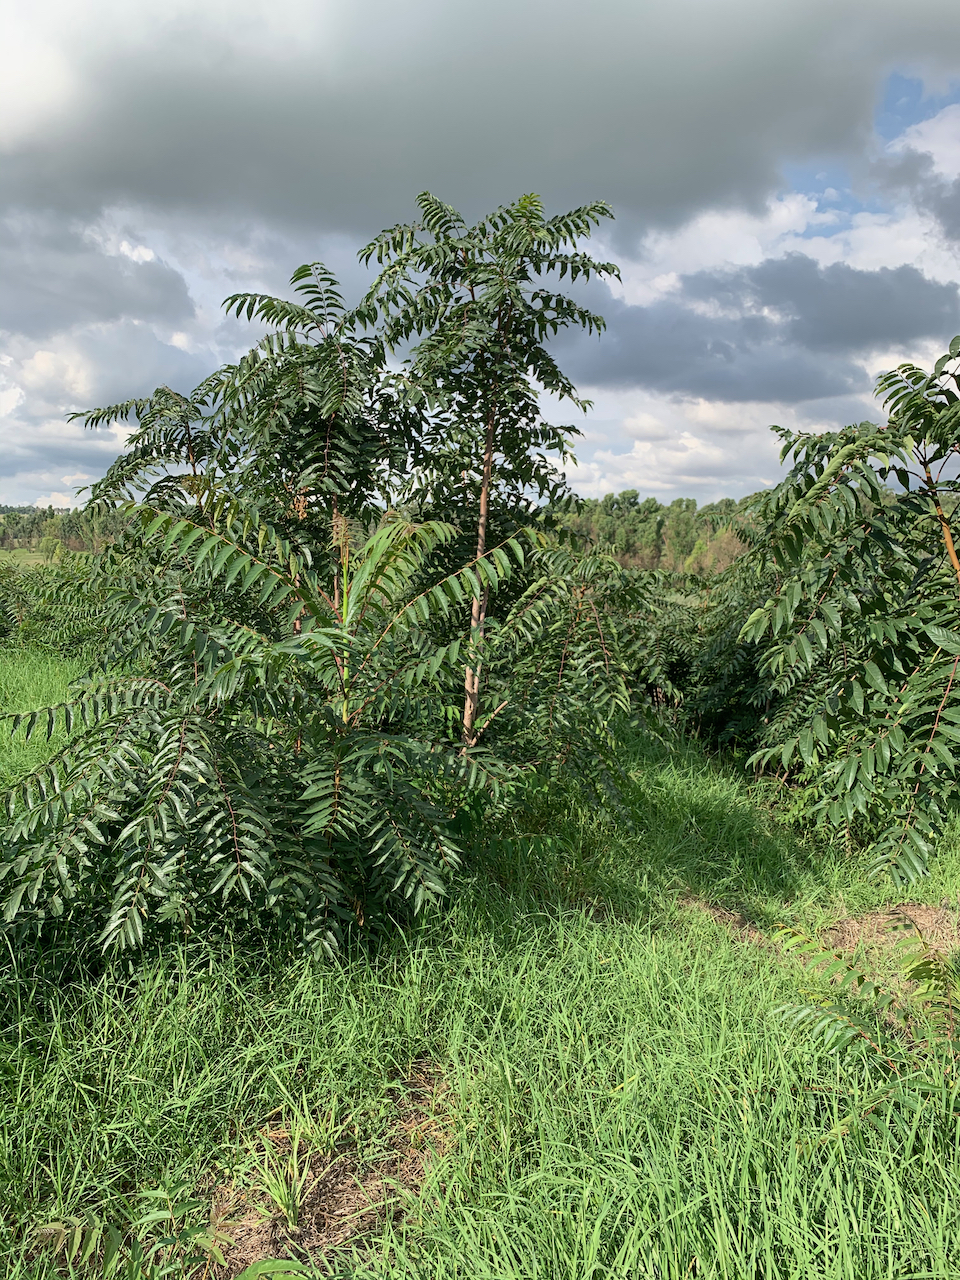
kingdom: Plantae
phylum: Tracheophyta
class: Magnoliopsida
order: Sapindales
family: Simaroubaceae
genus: Ailanthus
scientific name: Ailanthus altissima
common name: Tree-of-heaven
